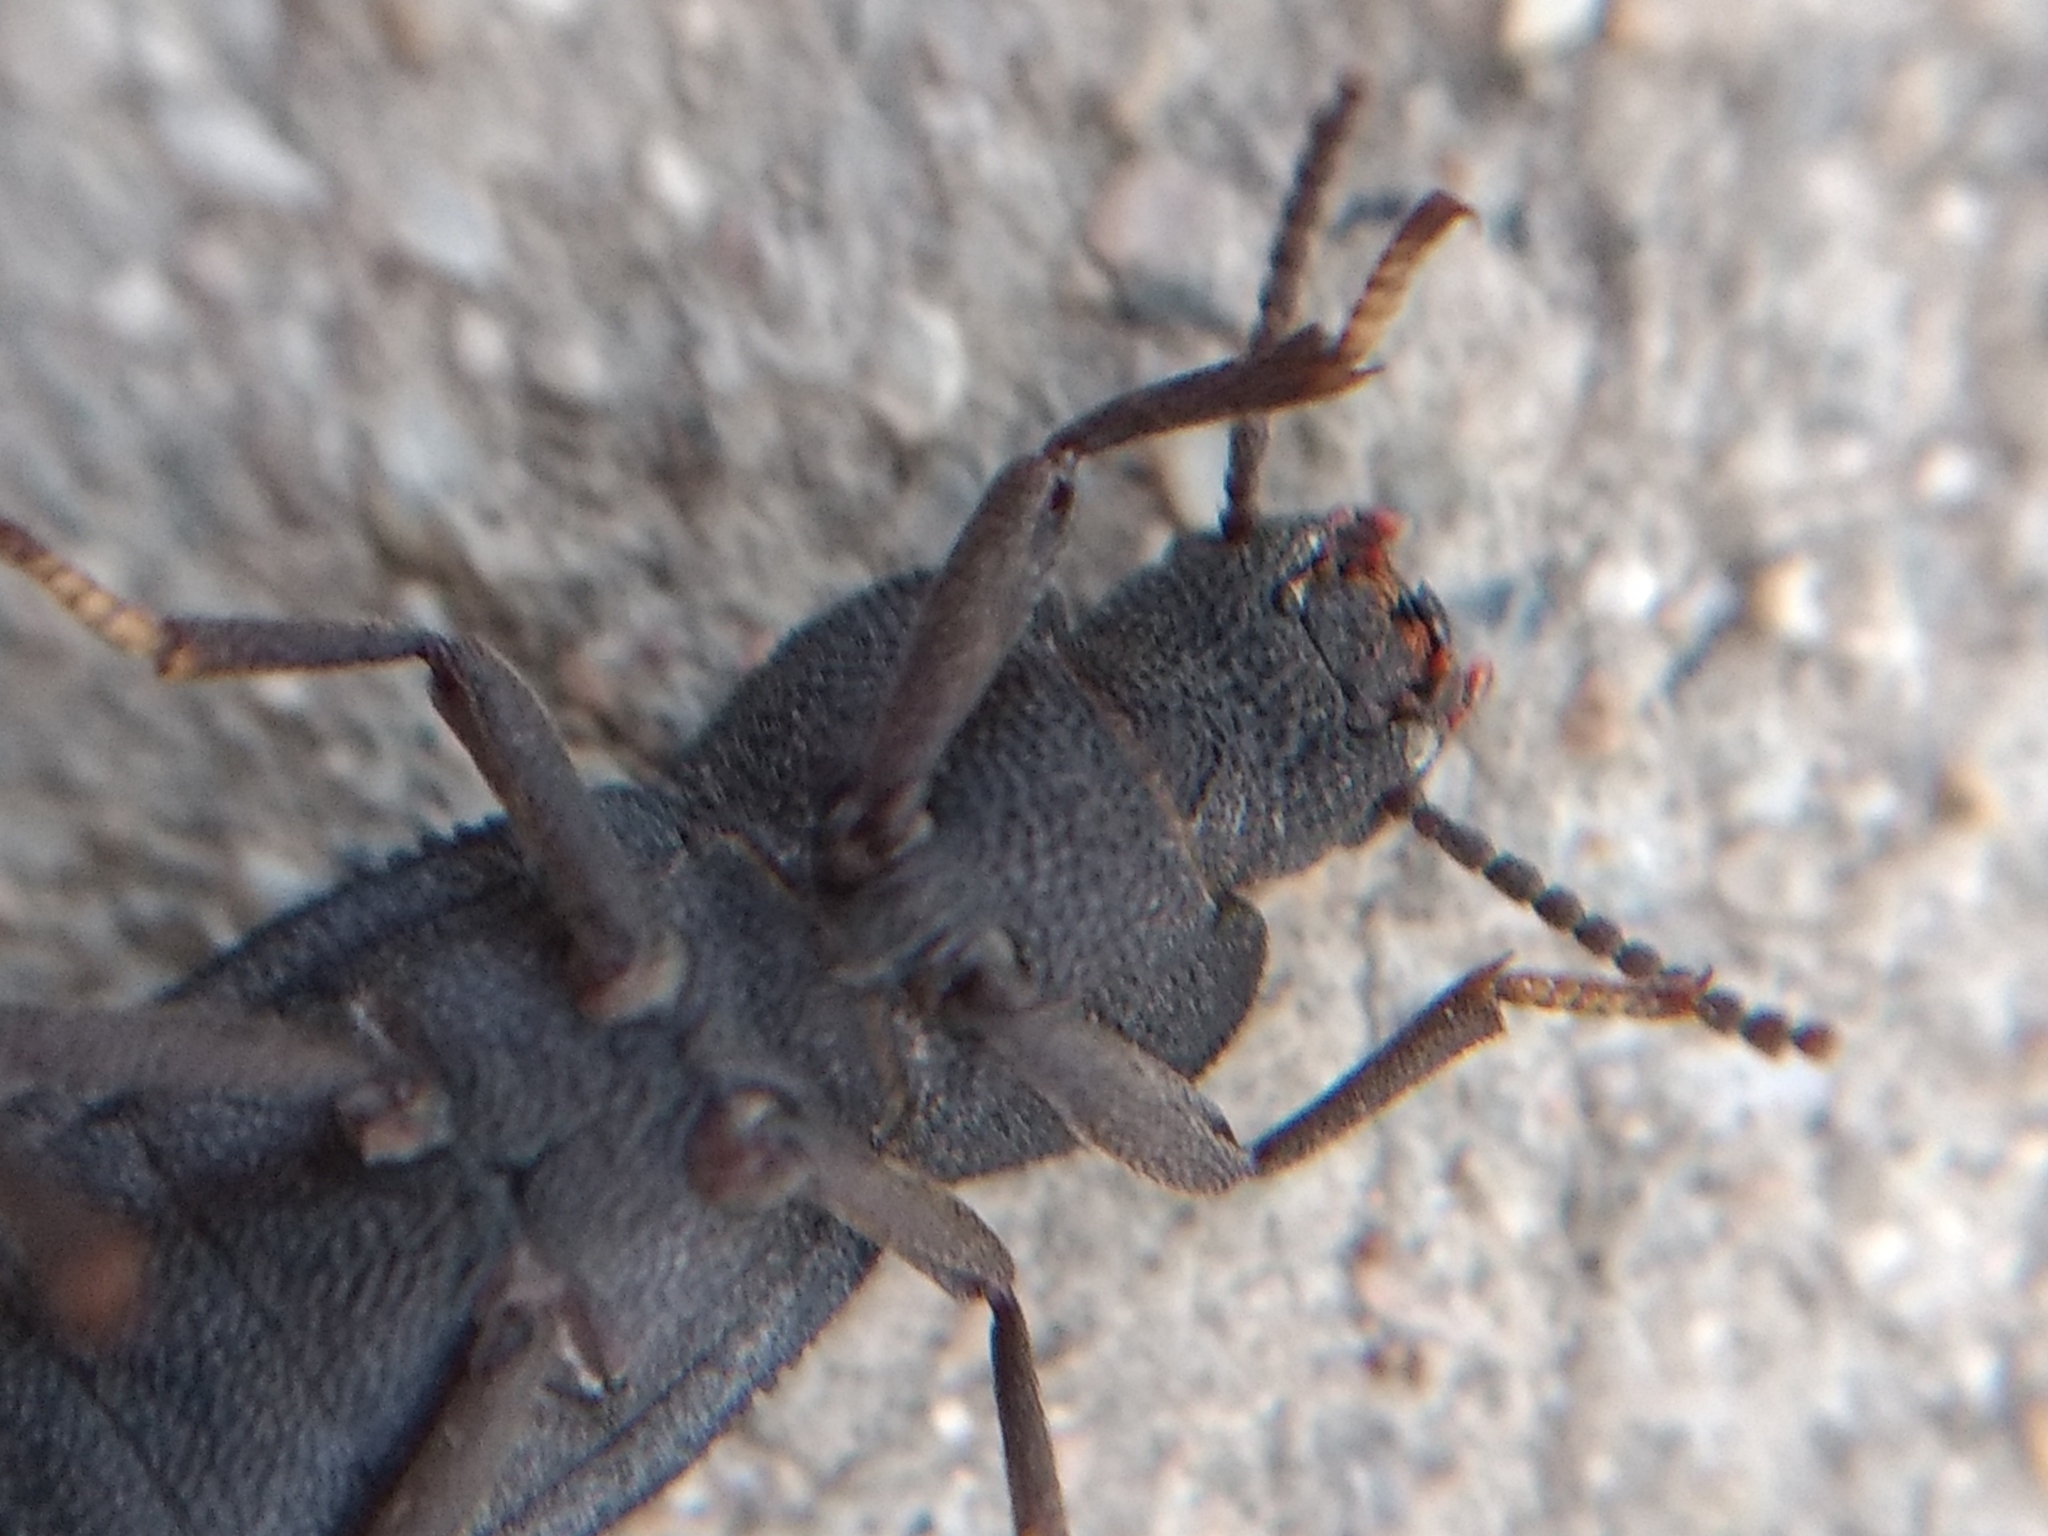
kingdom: Animalia
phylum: Arthropoda
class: Insecta
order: Coleoptera
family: Tenebrionidae
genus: Nyctoporis
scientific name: Nyctoporis carinata
